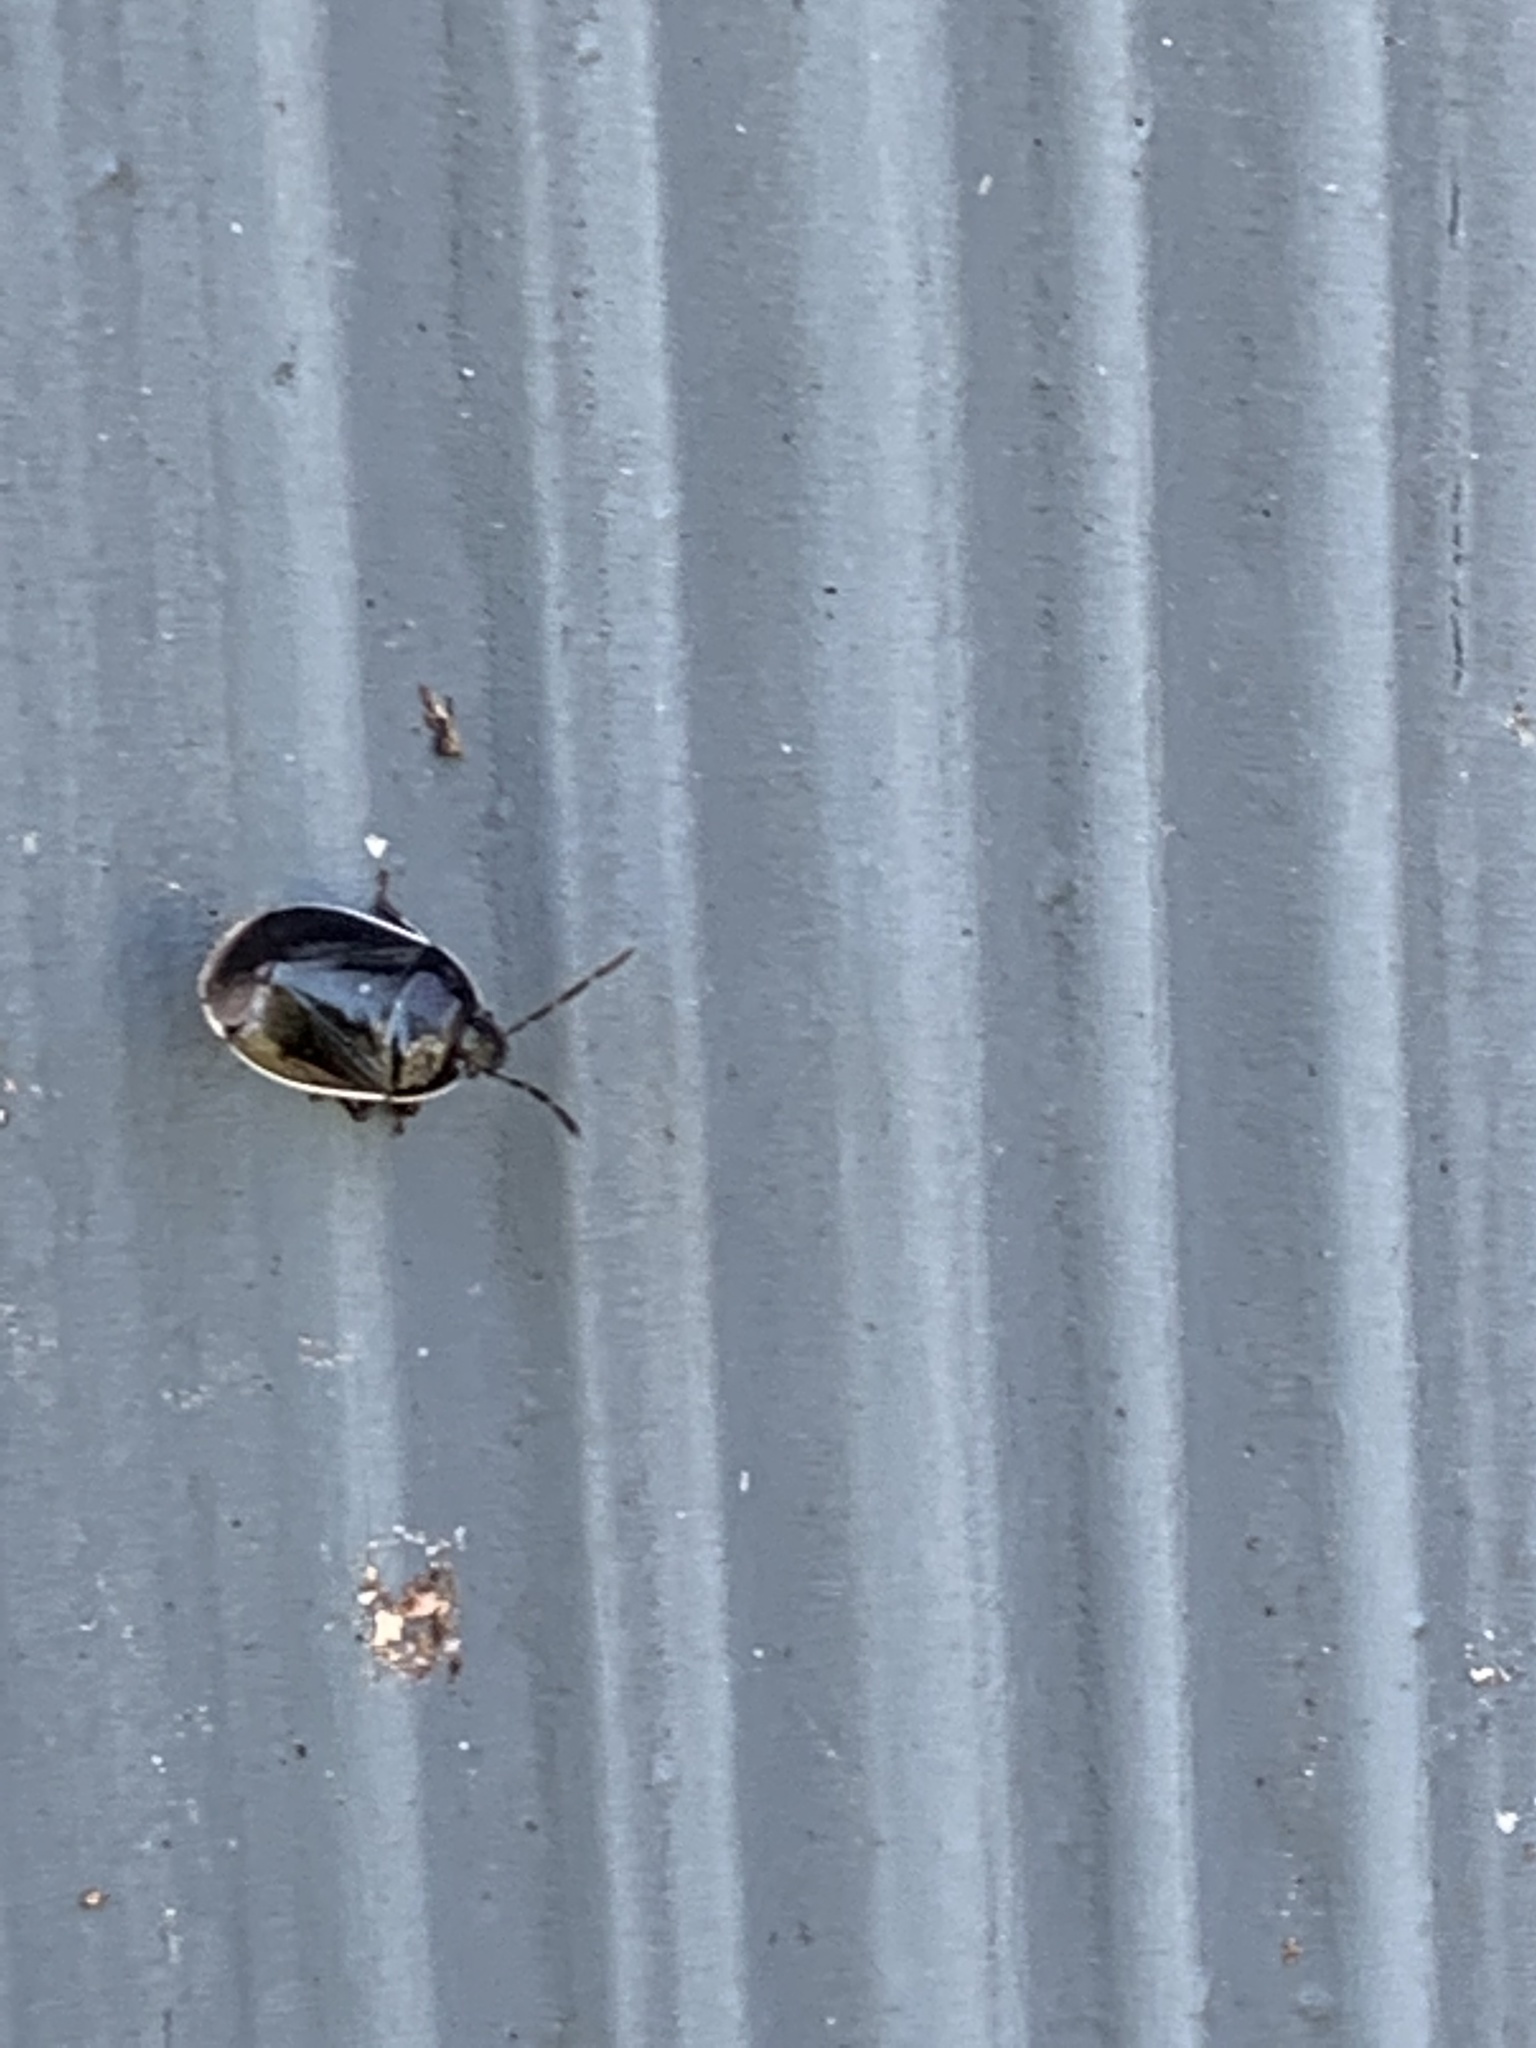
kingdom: Animalia
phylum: Arthropoda
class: Insecta
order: Hemiptera
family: Cydnidae
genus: Sehirus
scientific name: Sehirus cinctus
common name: White-margined burrower bug
